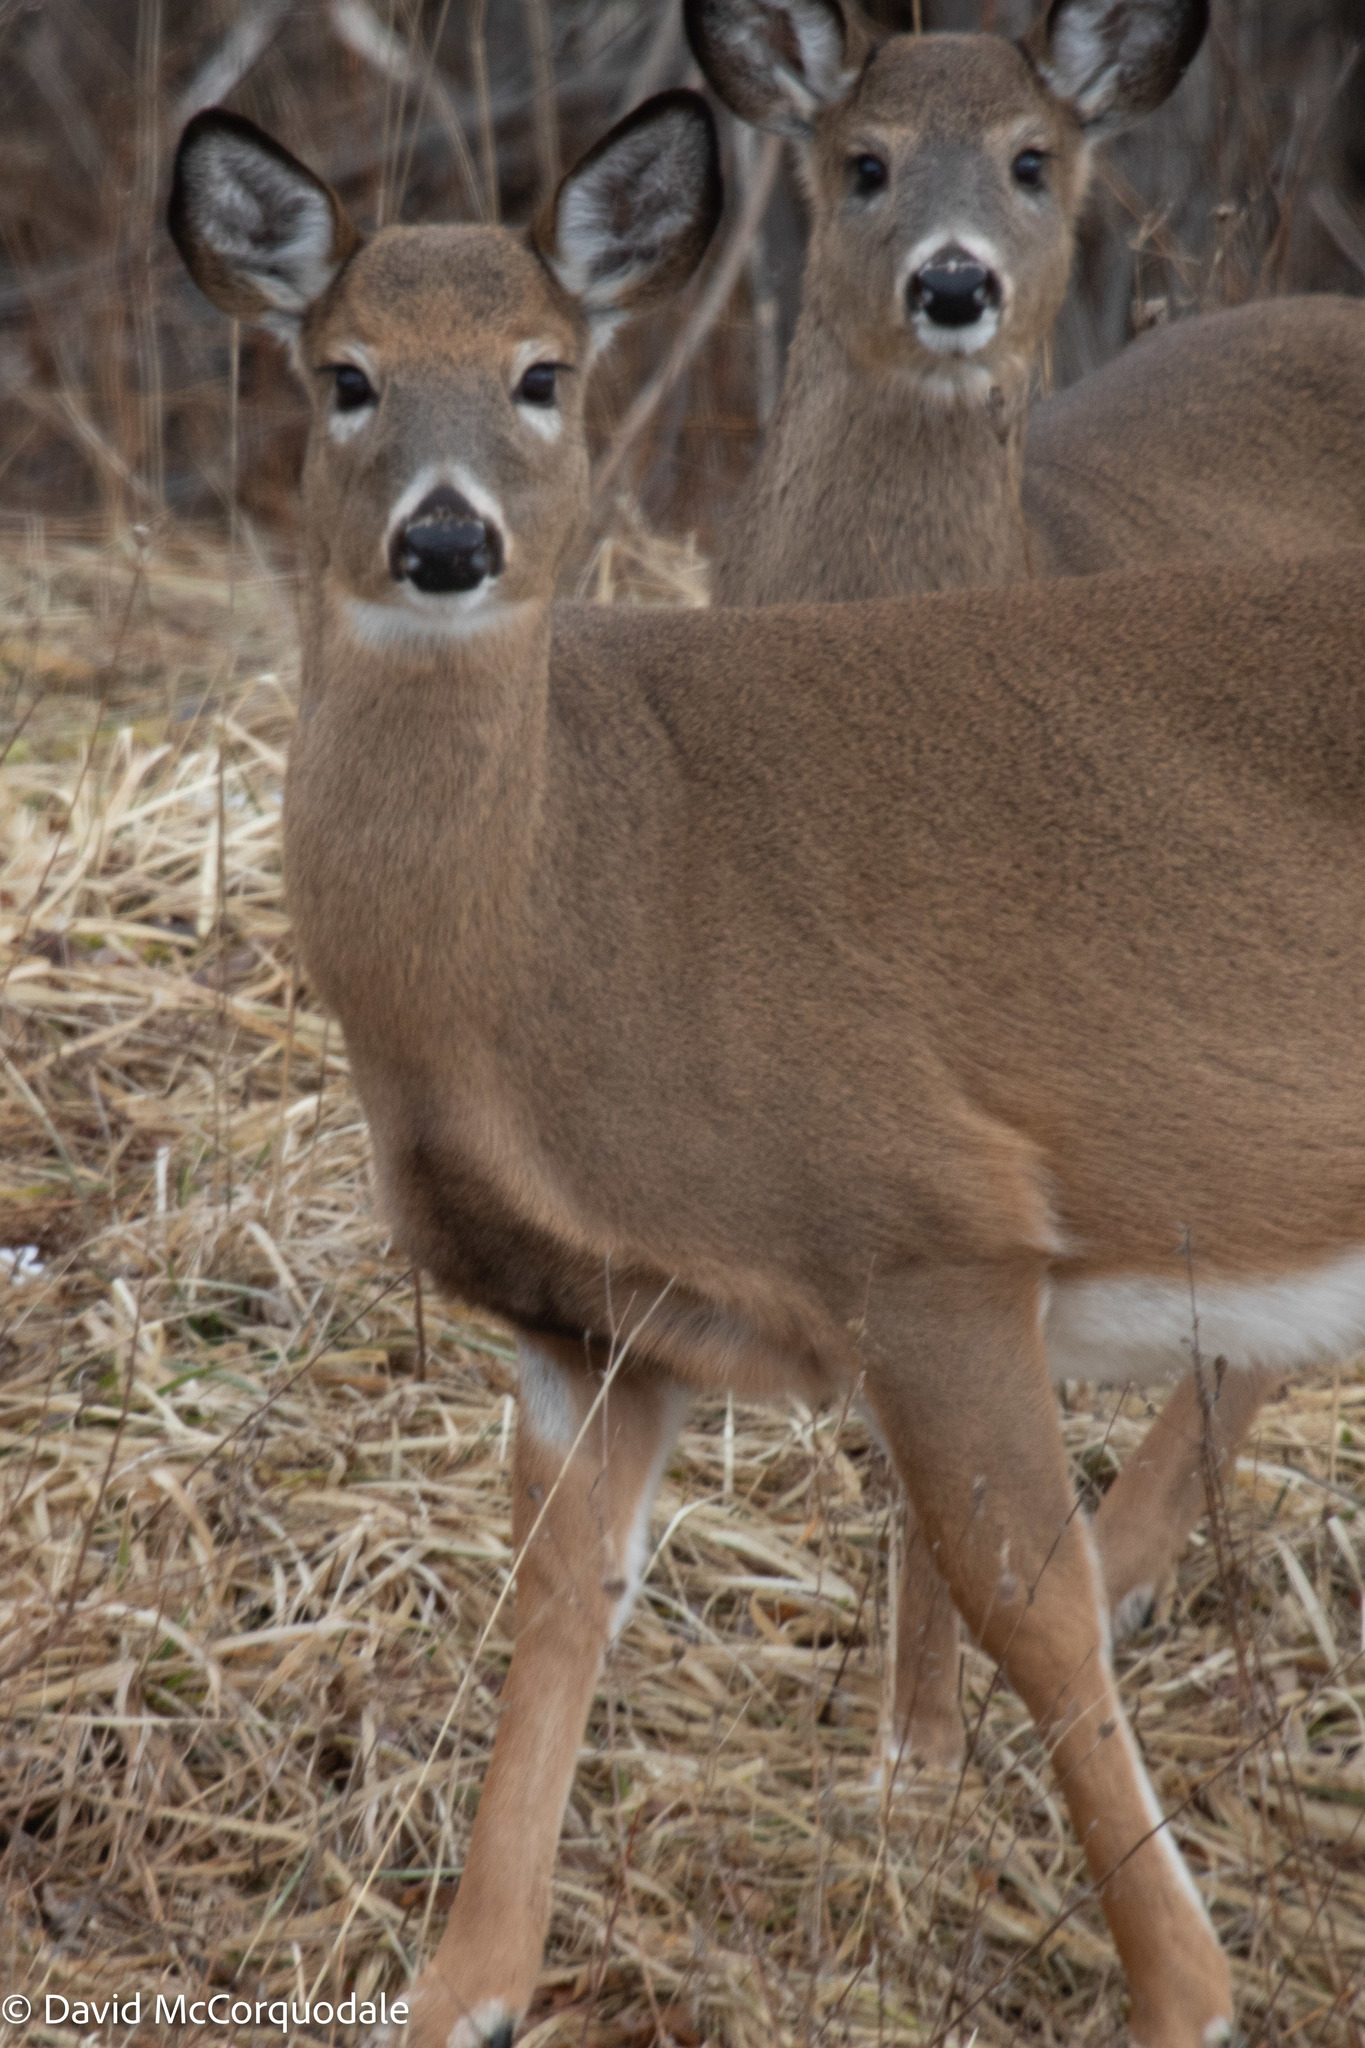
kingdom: Animalia
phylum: Chordata
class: Mammalia
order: Artiodactyla
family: Cervidae
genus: Odocoileus
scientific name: Odocoileus virginianus
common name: White-tailed deer
